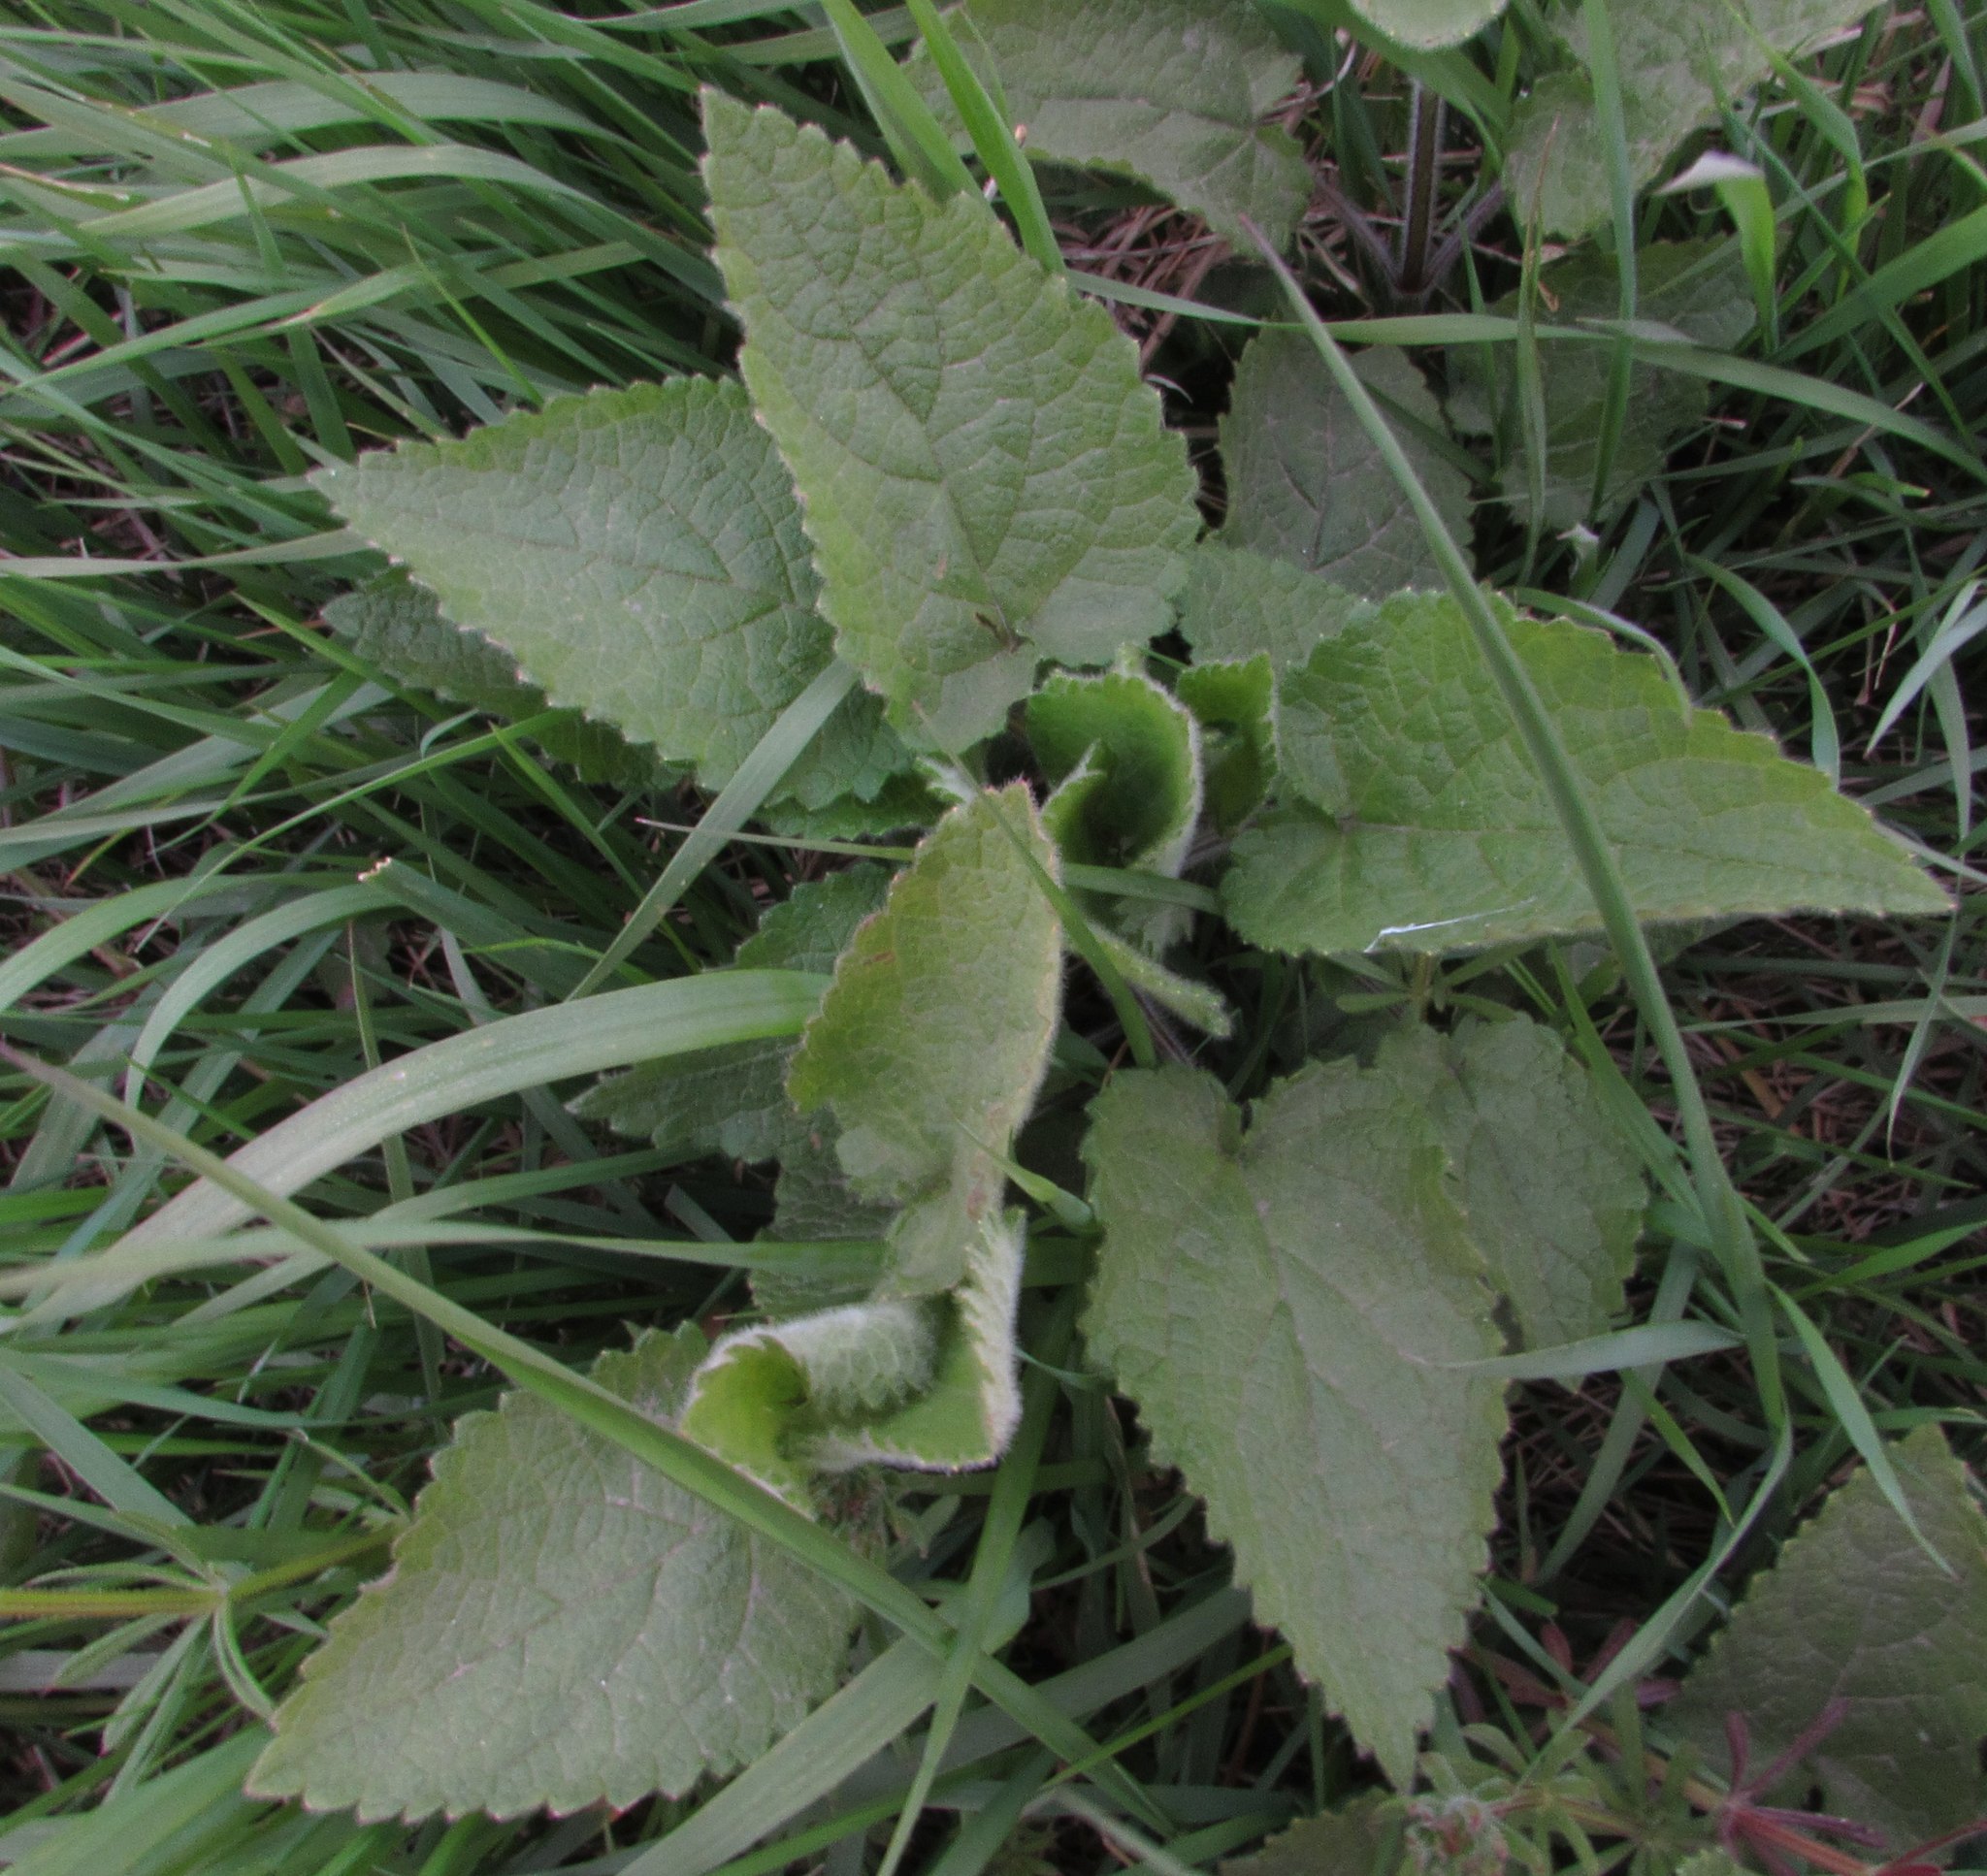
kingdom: Plantae
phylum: Tracheophyta
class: Magnoliopsida
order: Lamiales
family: Lamiaceae
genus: Stachys
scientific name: Stachys sylvatica
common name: Hedge woundwort
